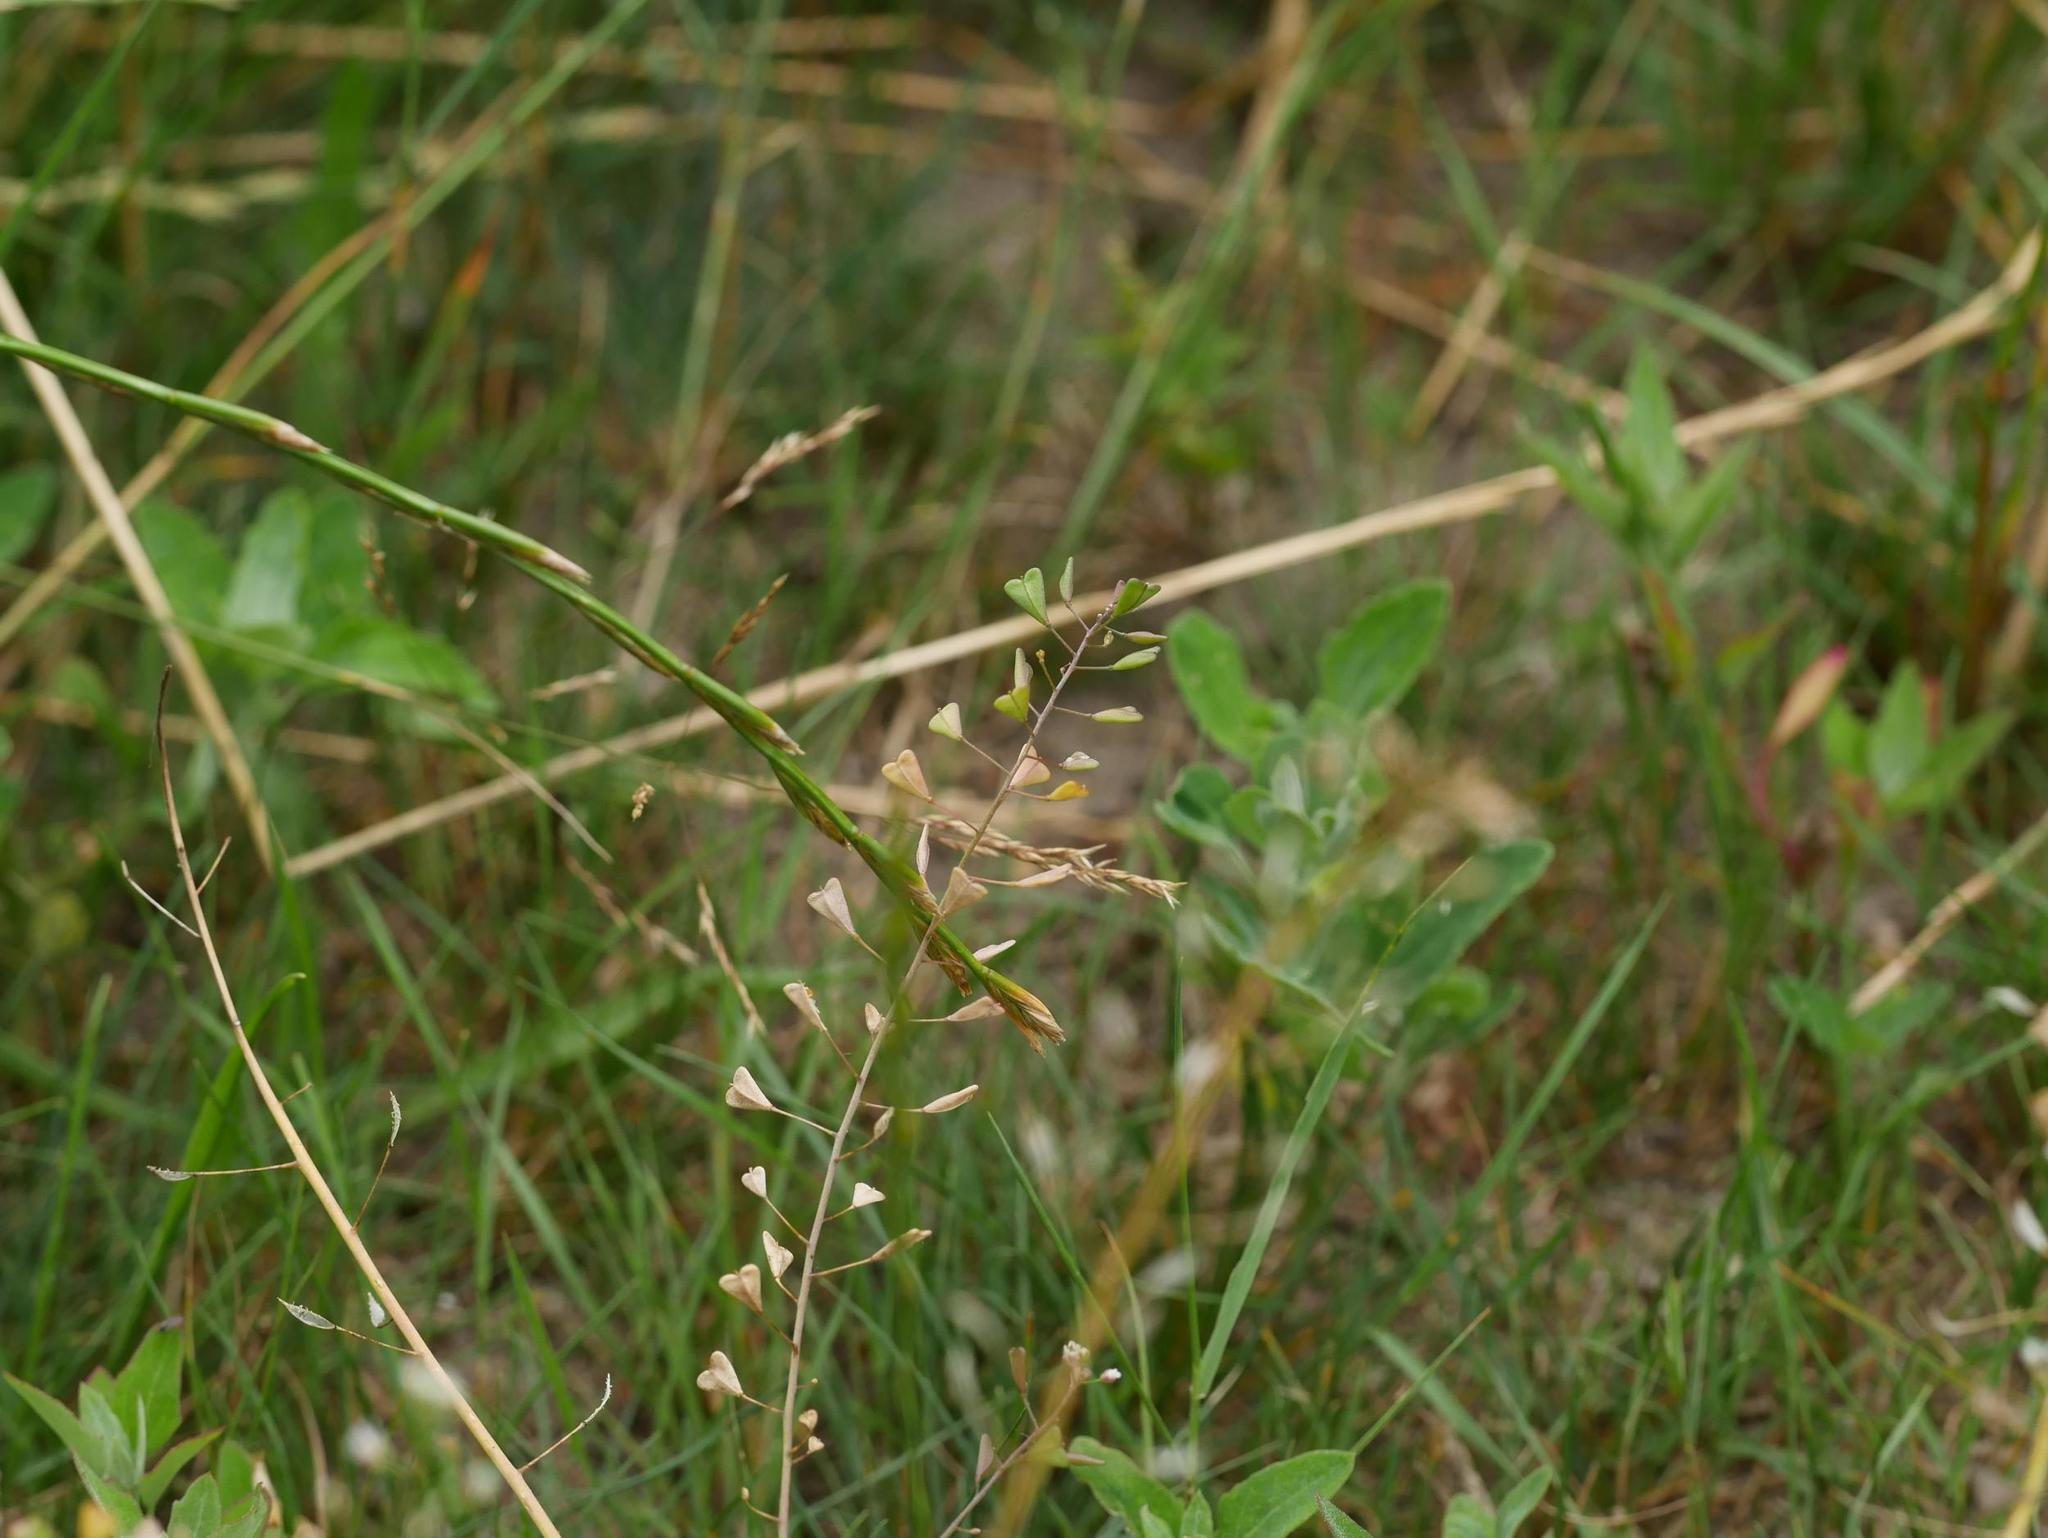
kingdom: Plantae
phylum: Tracheophyta
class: Magnoliopsida
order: Brassicales
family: Brassicaceae
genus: Capsella
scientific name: Capsella bursa-pastoris
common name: Shepherd's purse
